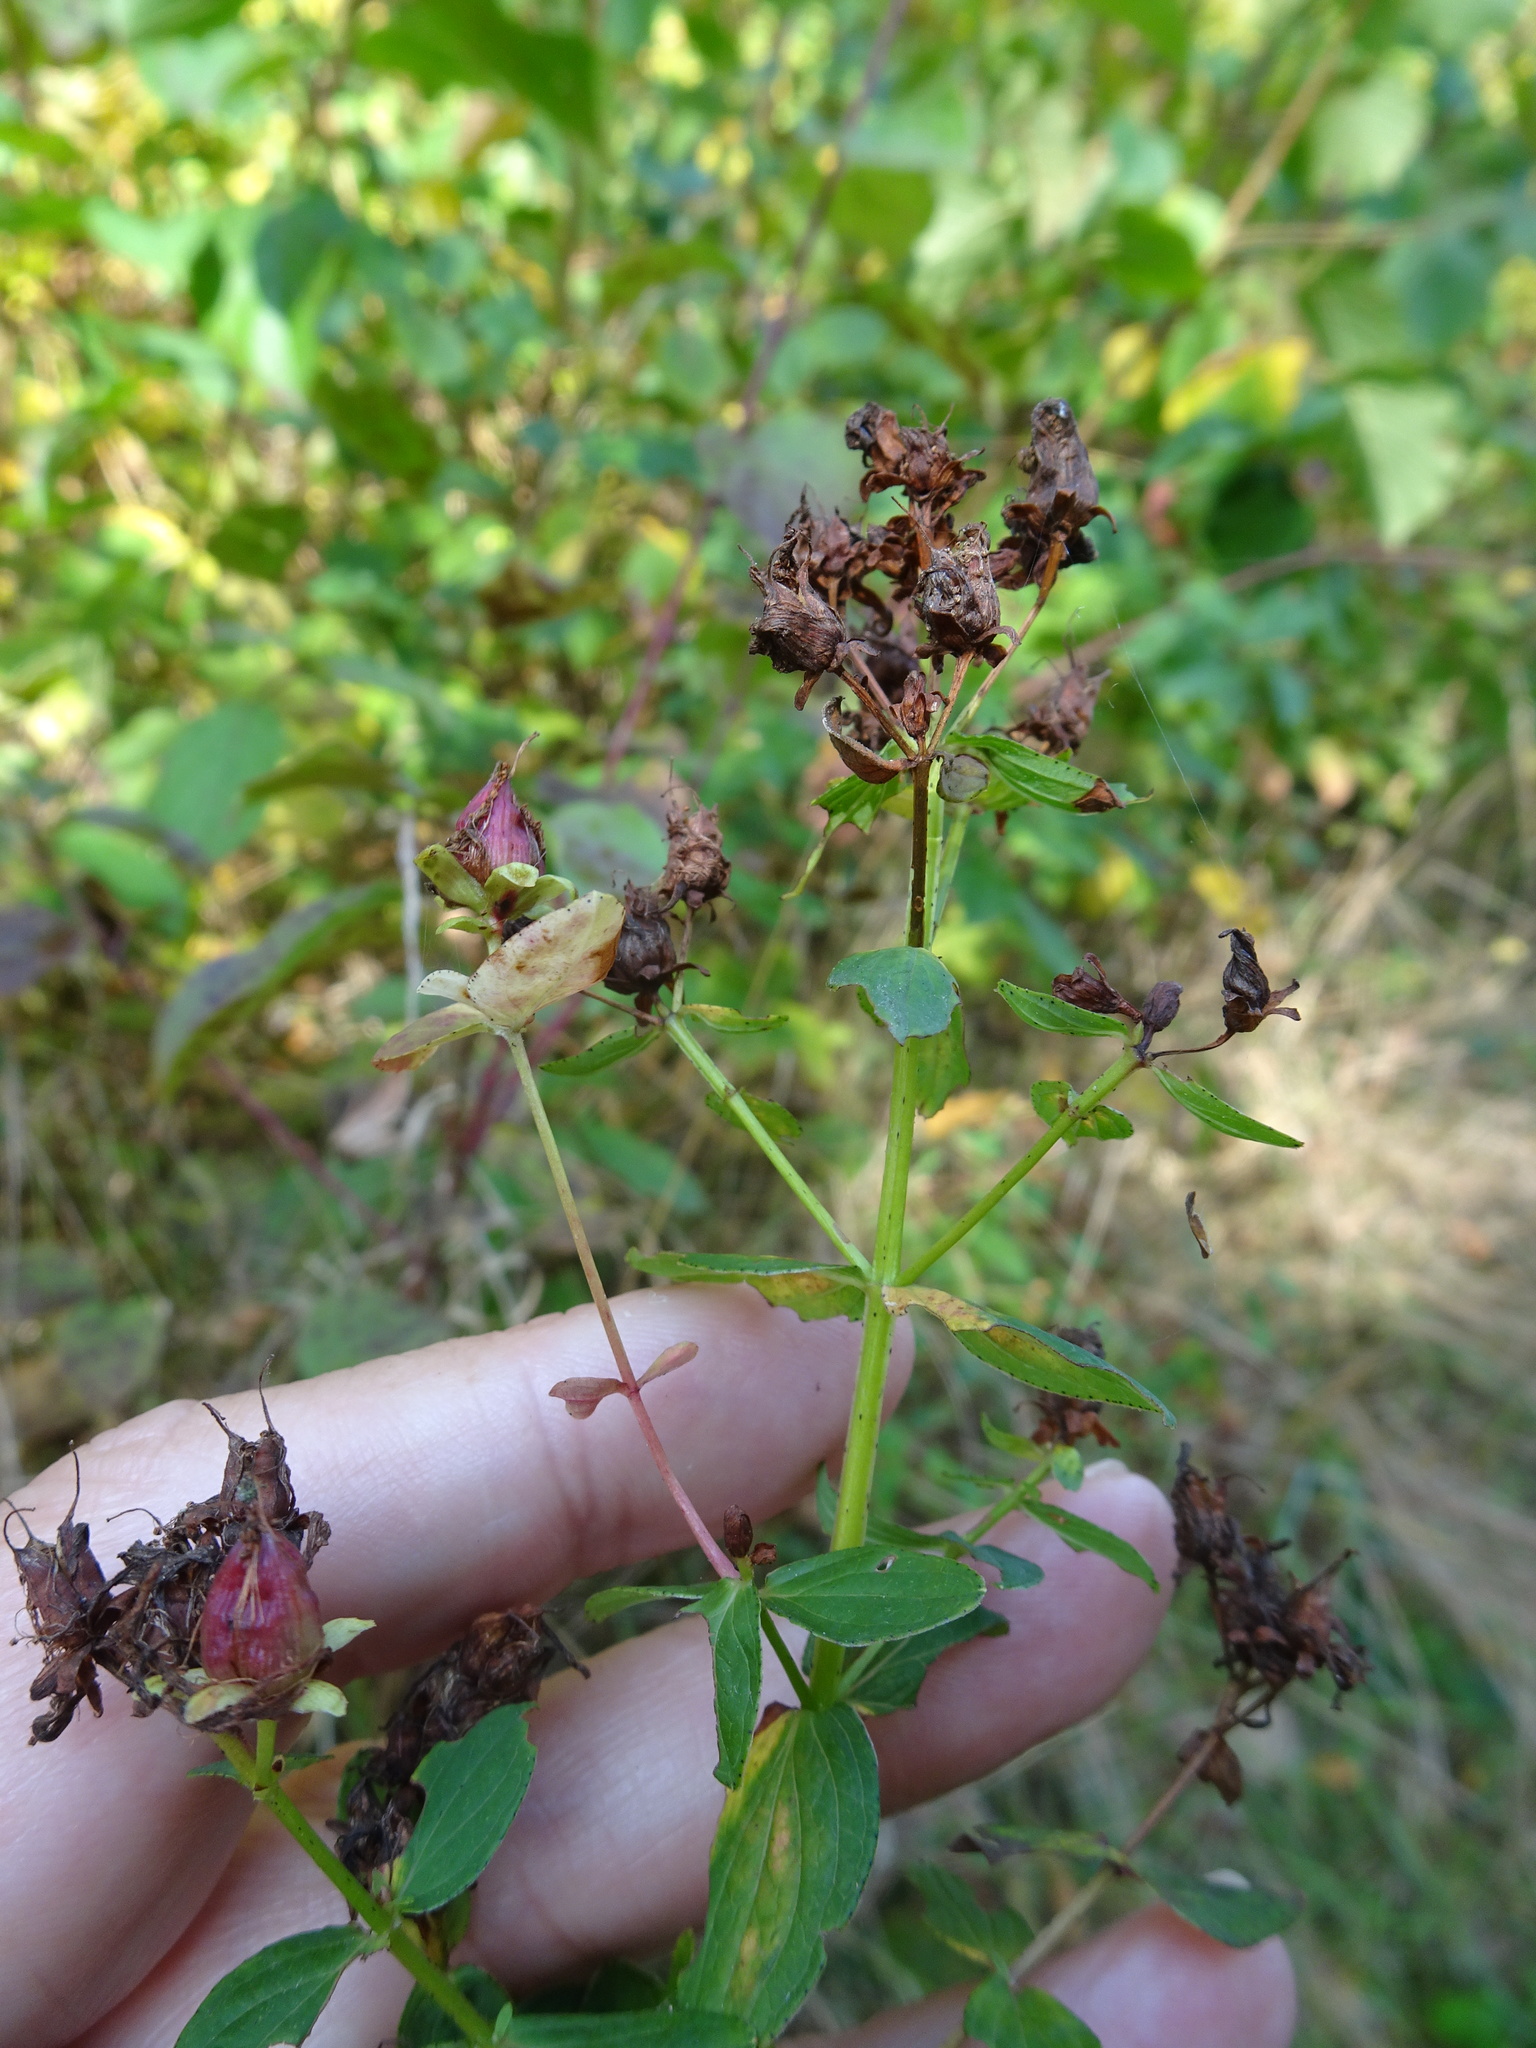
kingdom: Plantae
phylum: Tracheophyta
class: Magnoliopsida
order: Malpighiales
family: Hypericaceae
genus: Hypericum
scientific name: Hypericum tetrapterum
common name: Square-stalked st. john's-wort
